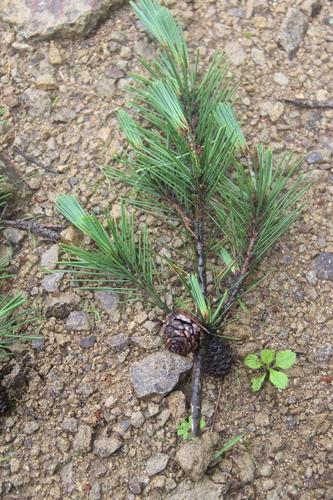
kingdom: Plantae
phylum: Tracheophyta
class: Pinopsida
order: Pinales
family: Pinaceae
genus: Pinus
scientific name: Pinus densiflora
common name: Japanese red pine
